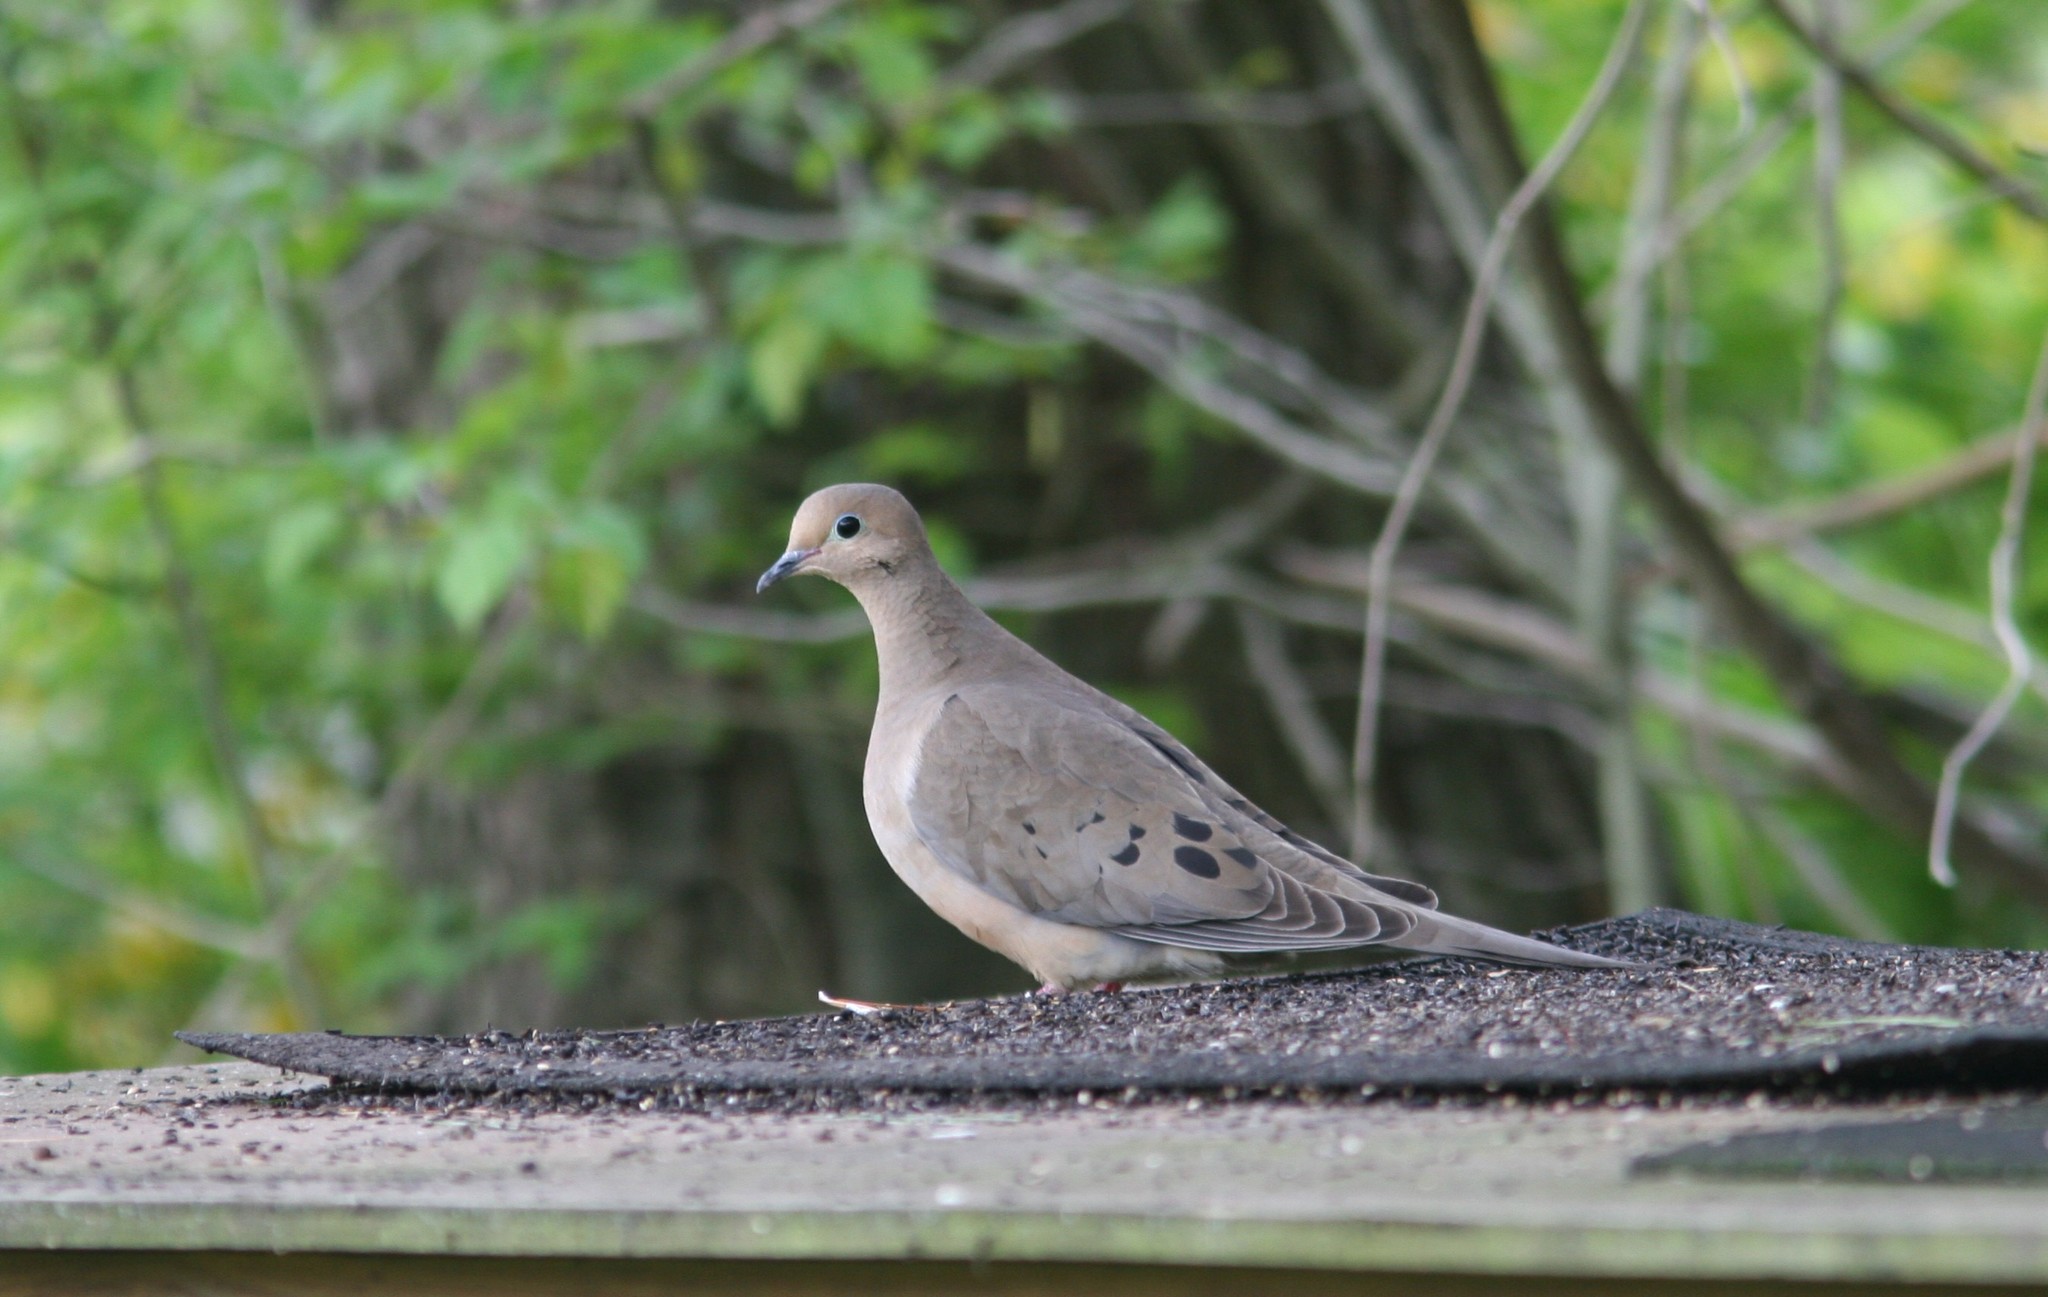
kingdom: Animalia
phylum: Chordata
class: Aves
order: Columbiformes
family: Columbidae
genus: Zenaida
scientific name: Zenaida macroura
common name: Mourning dove
